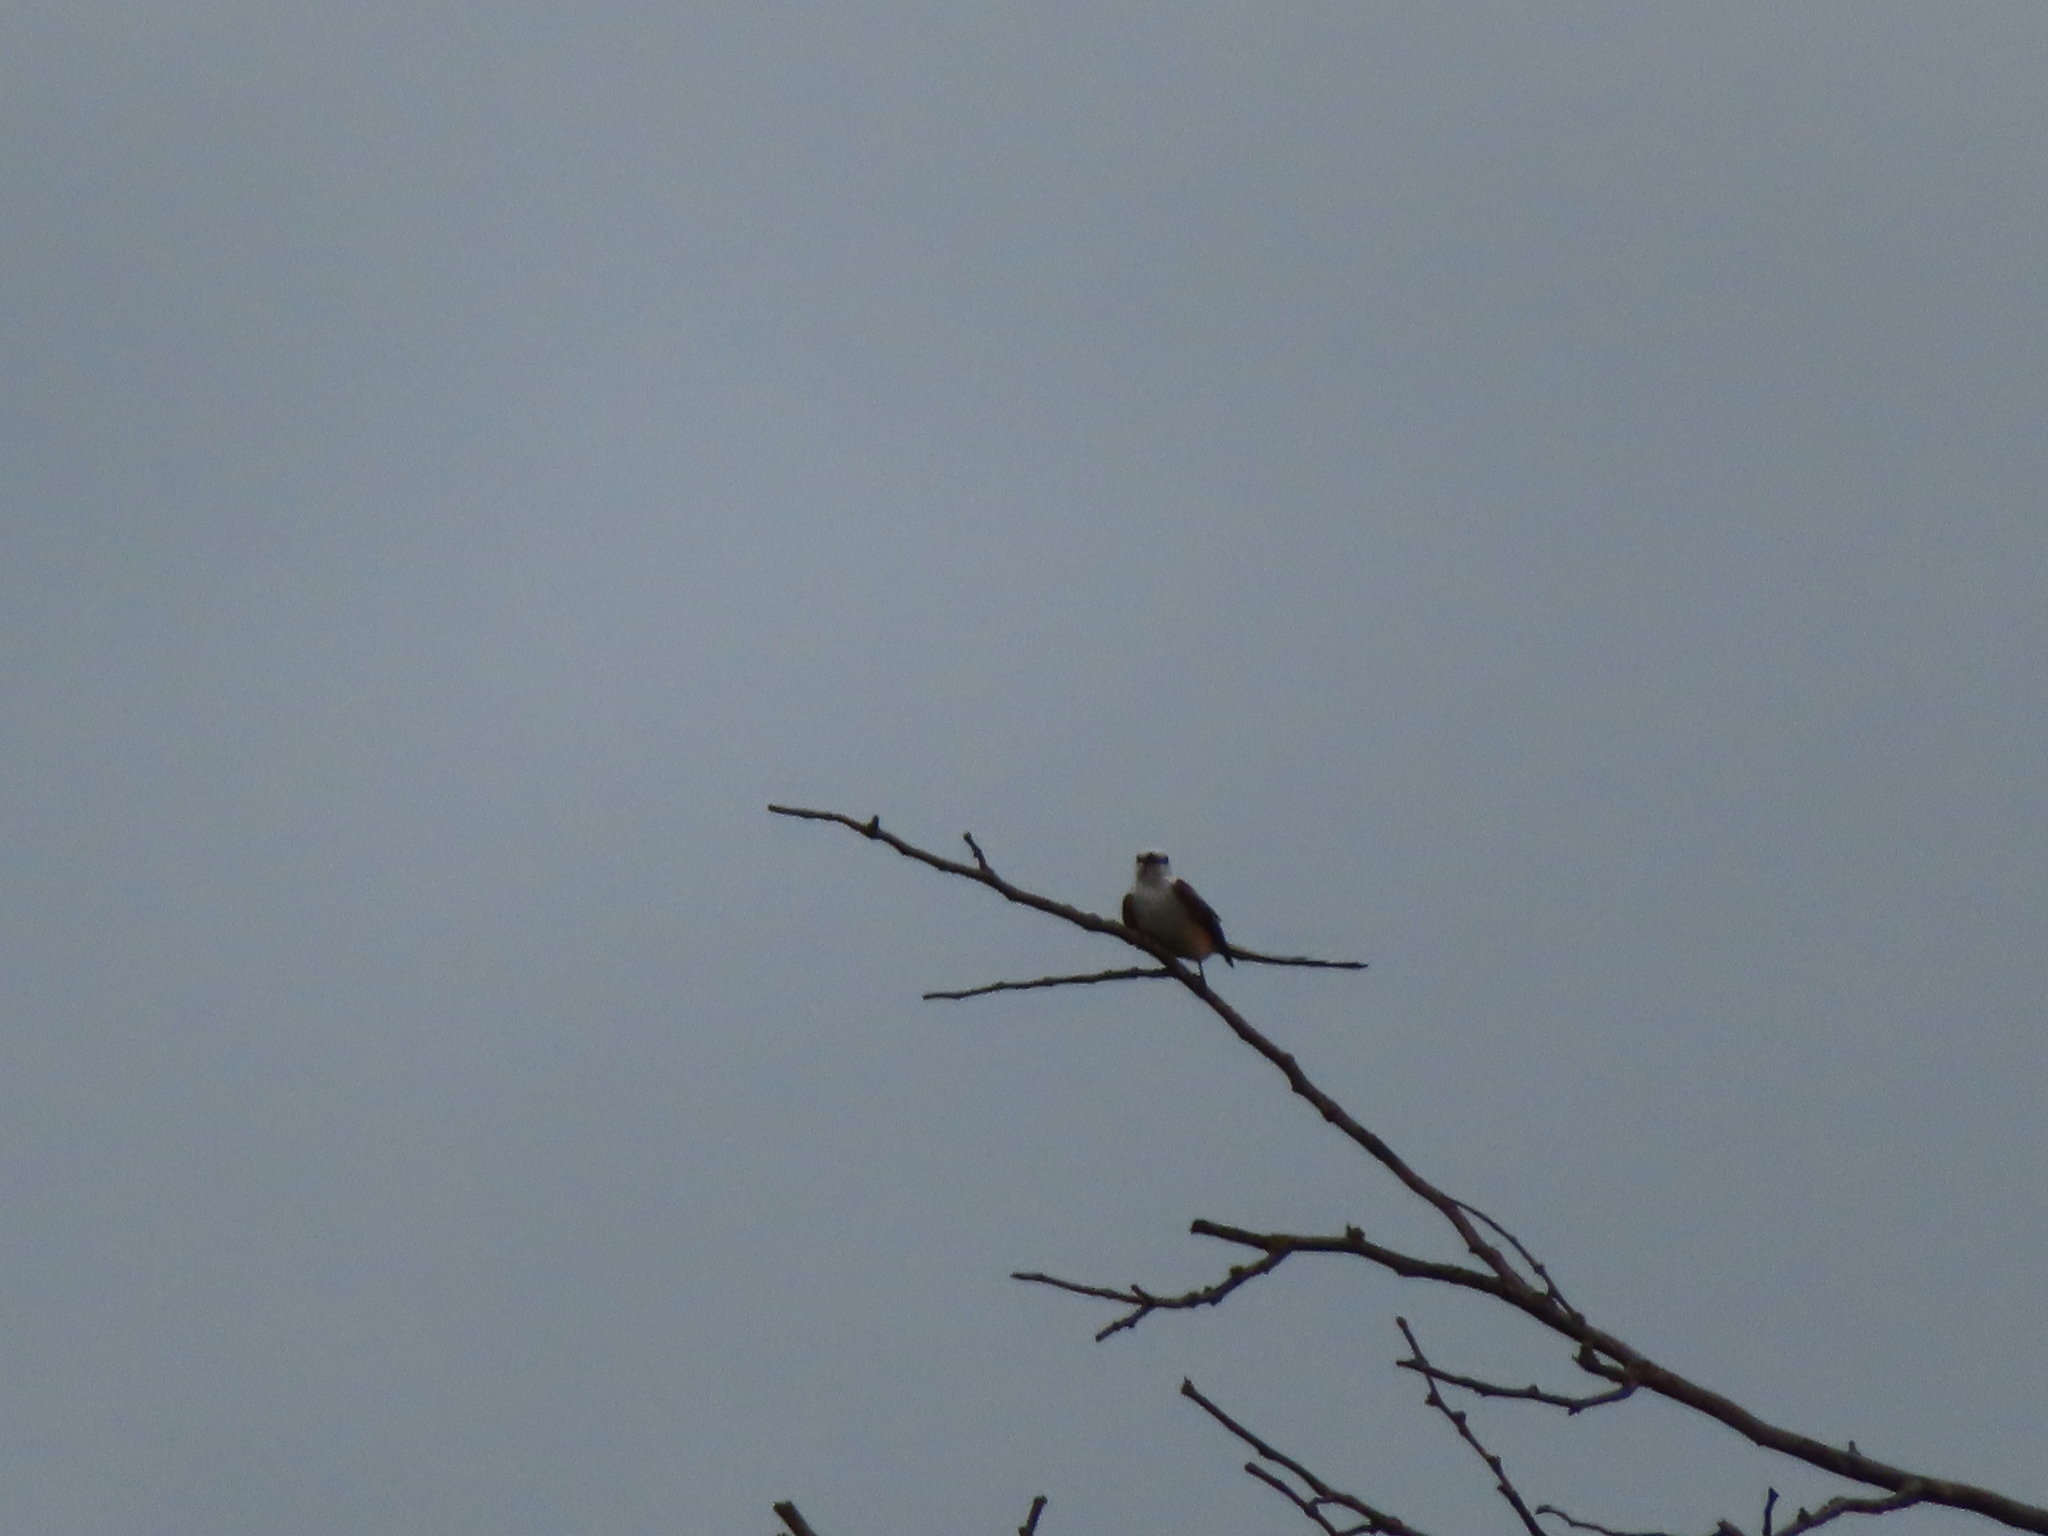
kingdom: Animalia
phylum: Chordata
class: Aves
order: Passeriformes
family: Tyrannidae
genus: Tyrannus
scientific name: Tyrannus forficatus
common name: Scissor-tailed flycatcher
